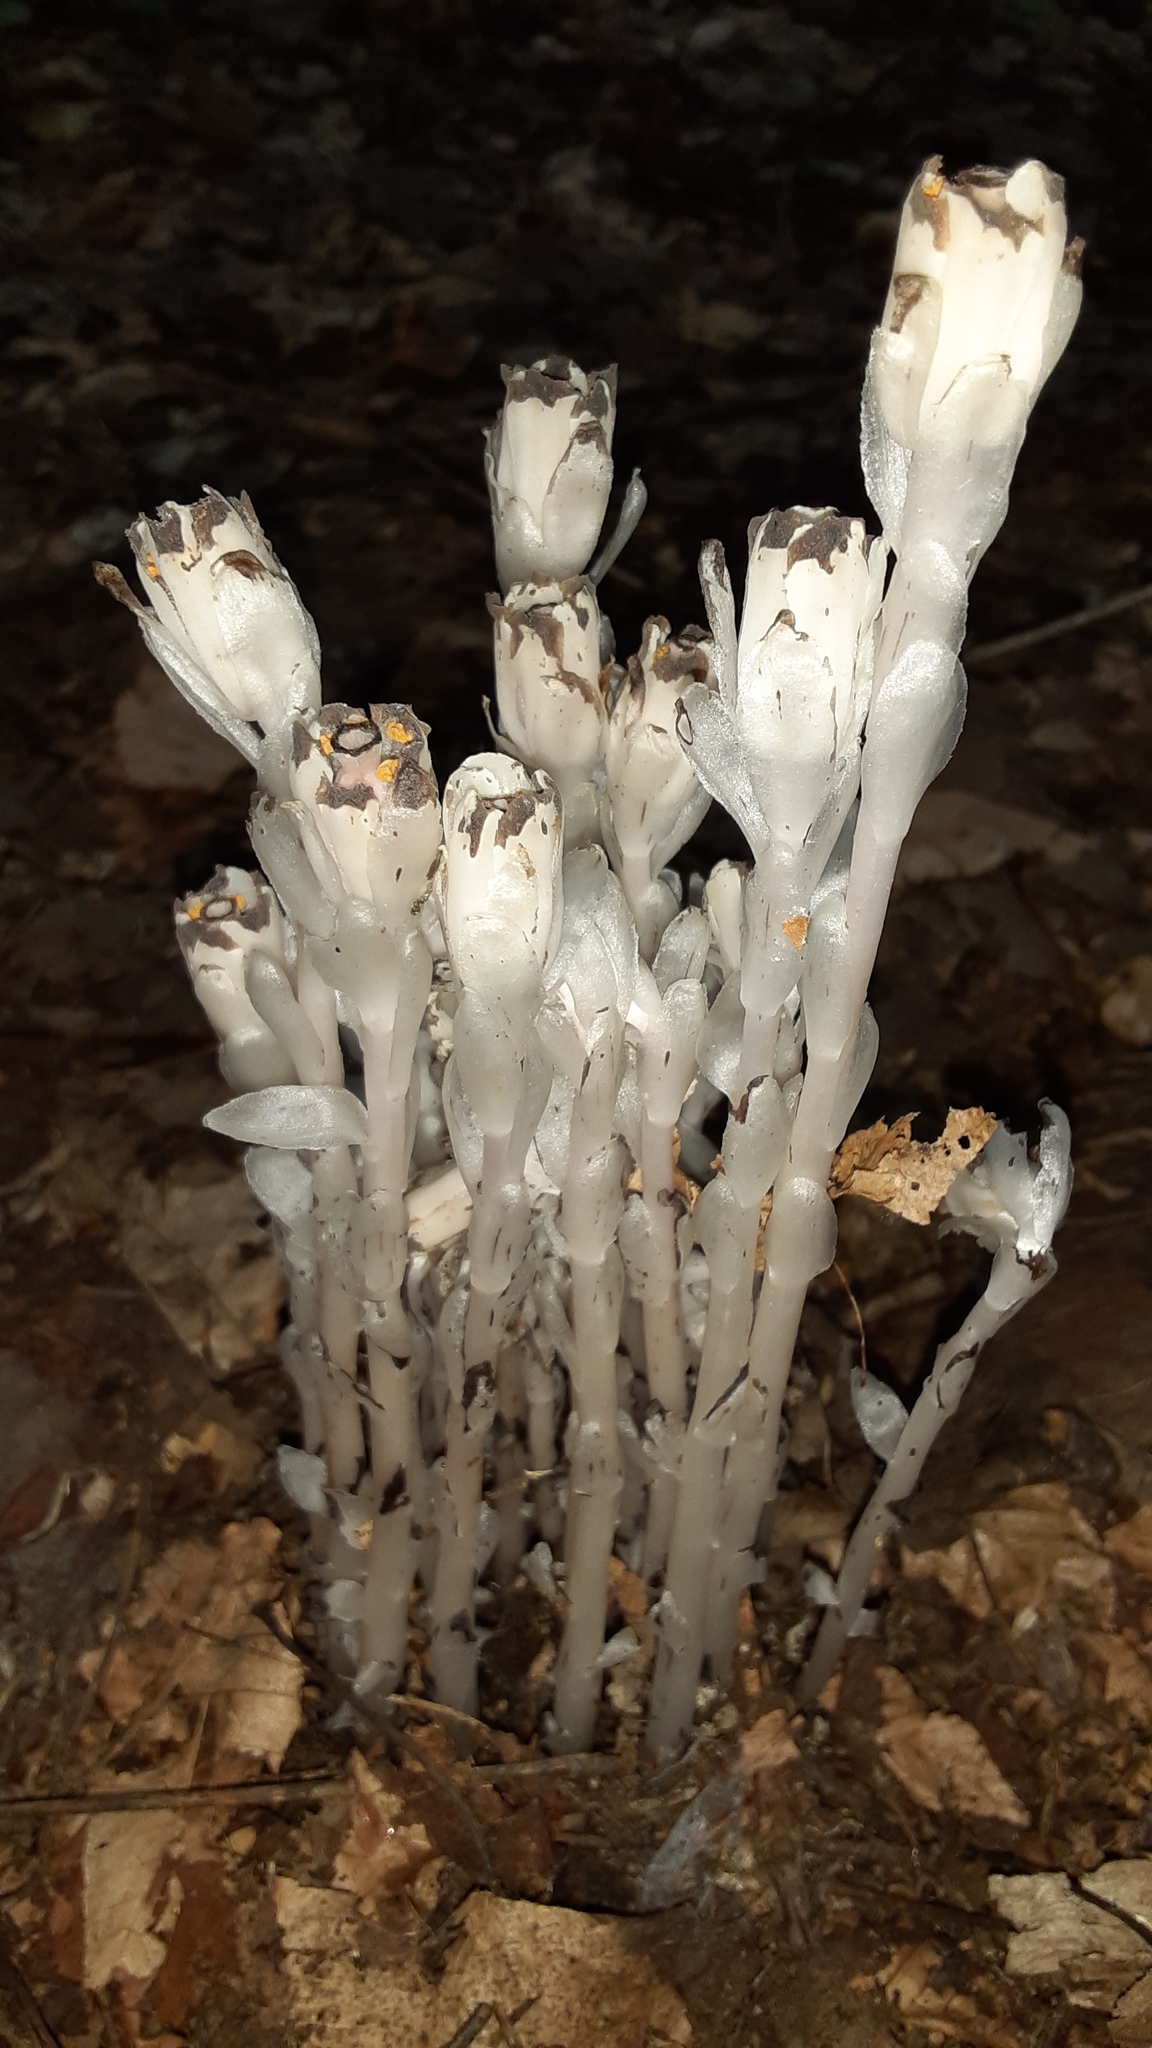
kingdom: Plantae
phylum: Tracheophyta
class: Magnoliopsida
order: Ericales
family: Ericaceae
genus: Monotropa
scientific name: Monotropa uniflora
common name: Convulsion root
